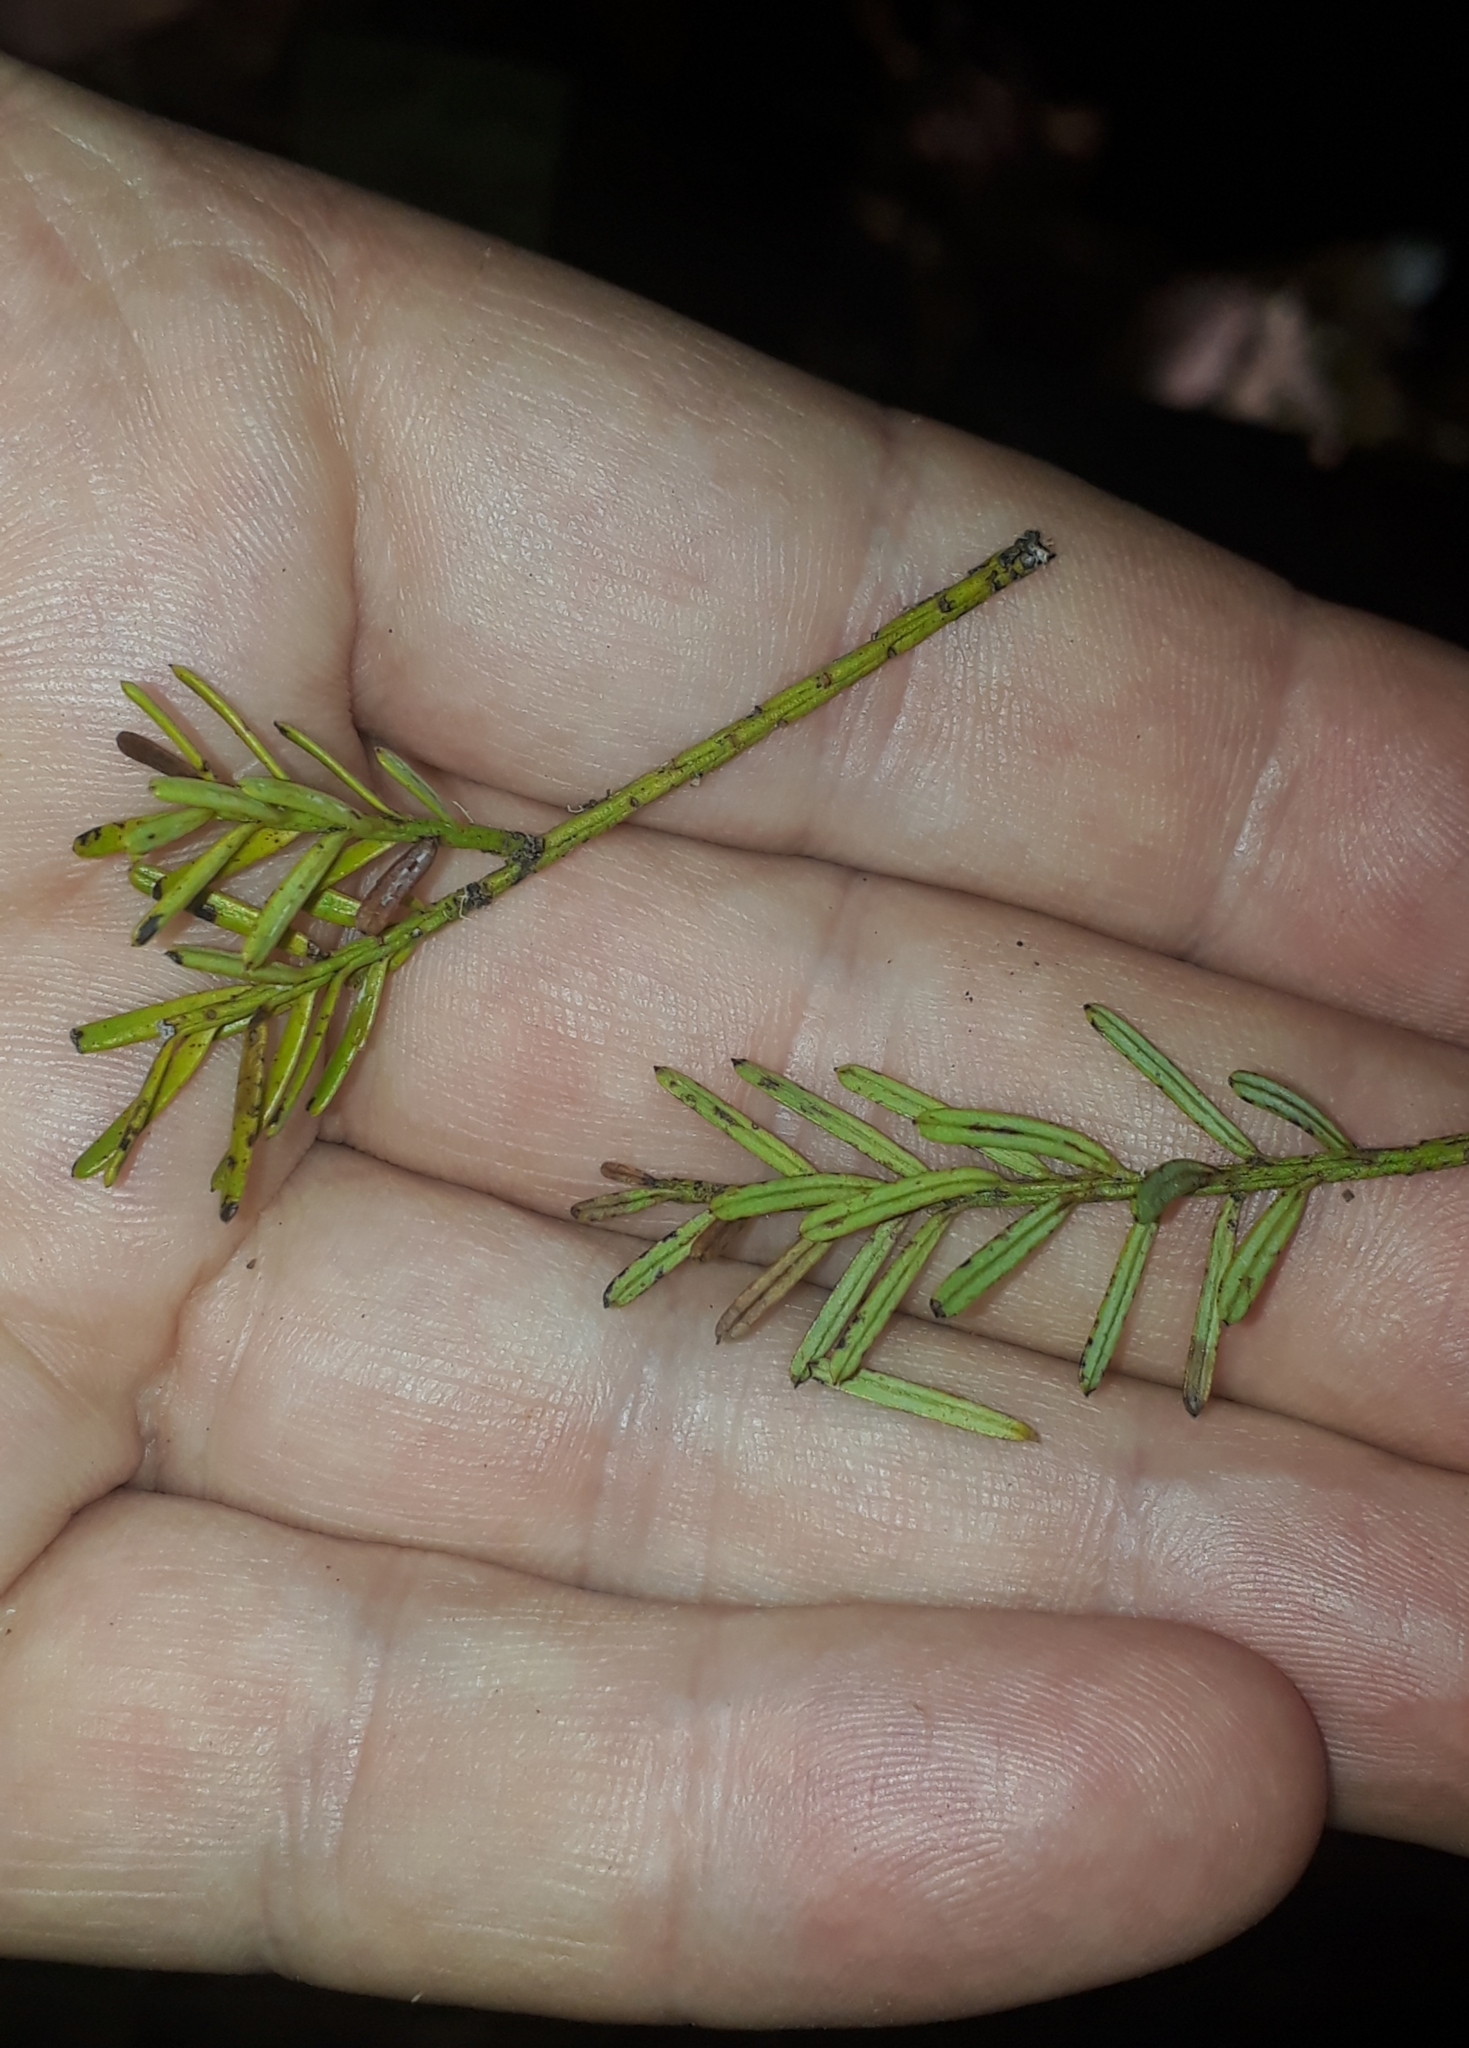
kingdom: Plantae
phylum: Tracheophyta
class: Pinopsida
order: Pinales
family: Podocarpaceae
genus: Prumnopitys
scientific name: Prumnopitys taxifolia
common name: Matai
